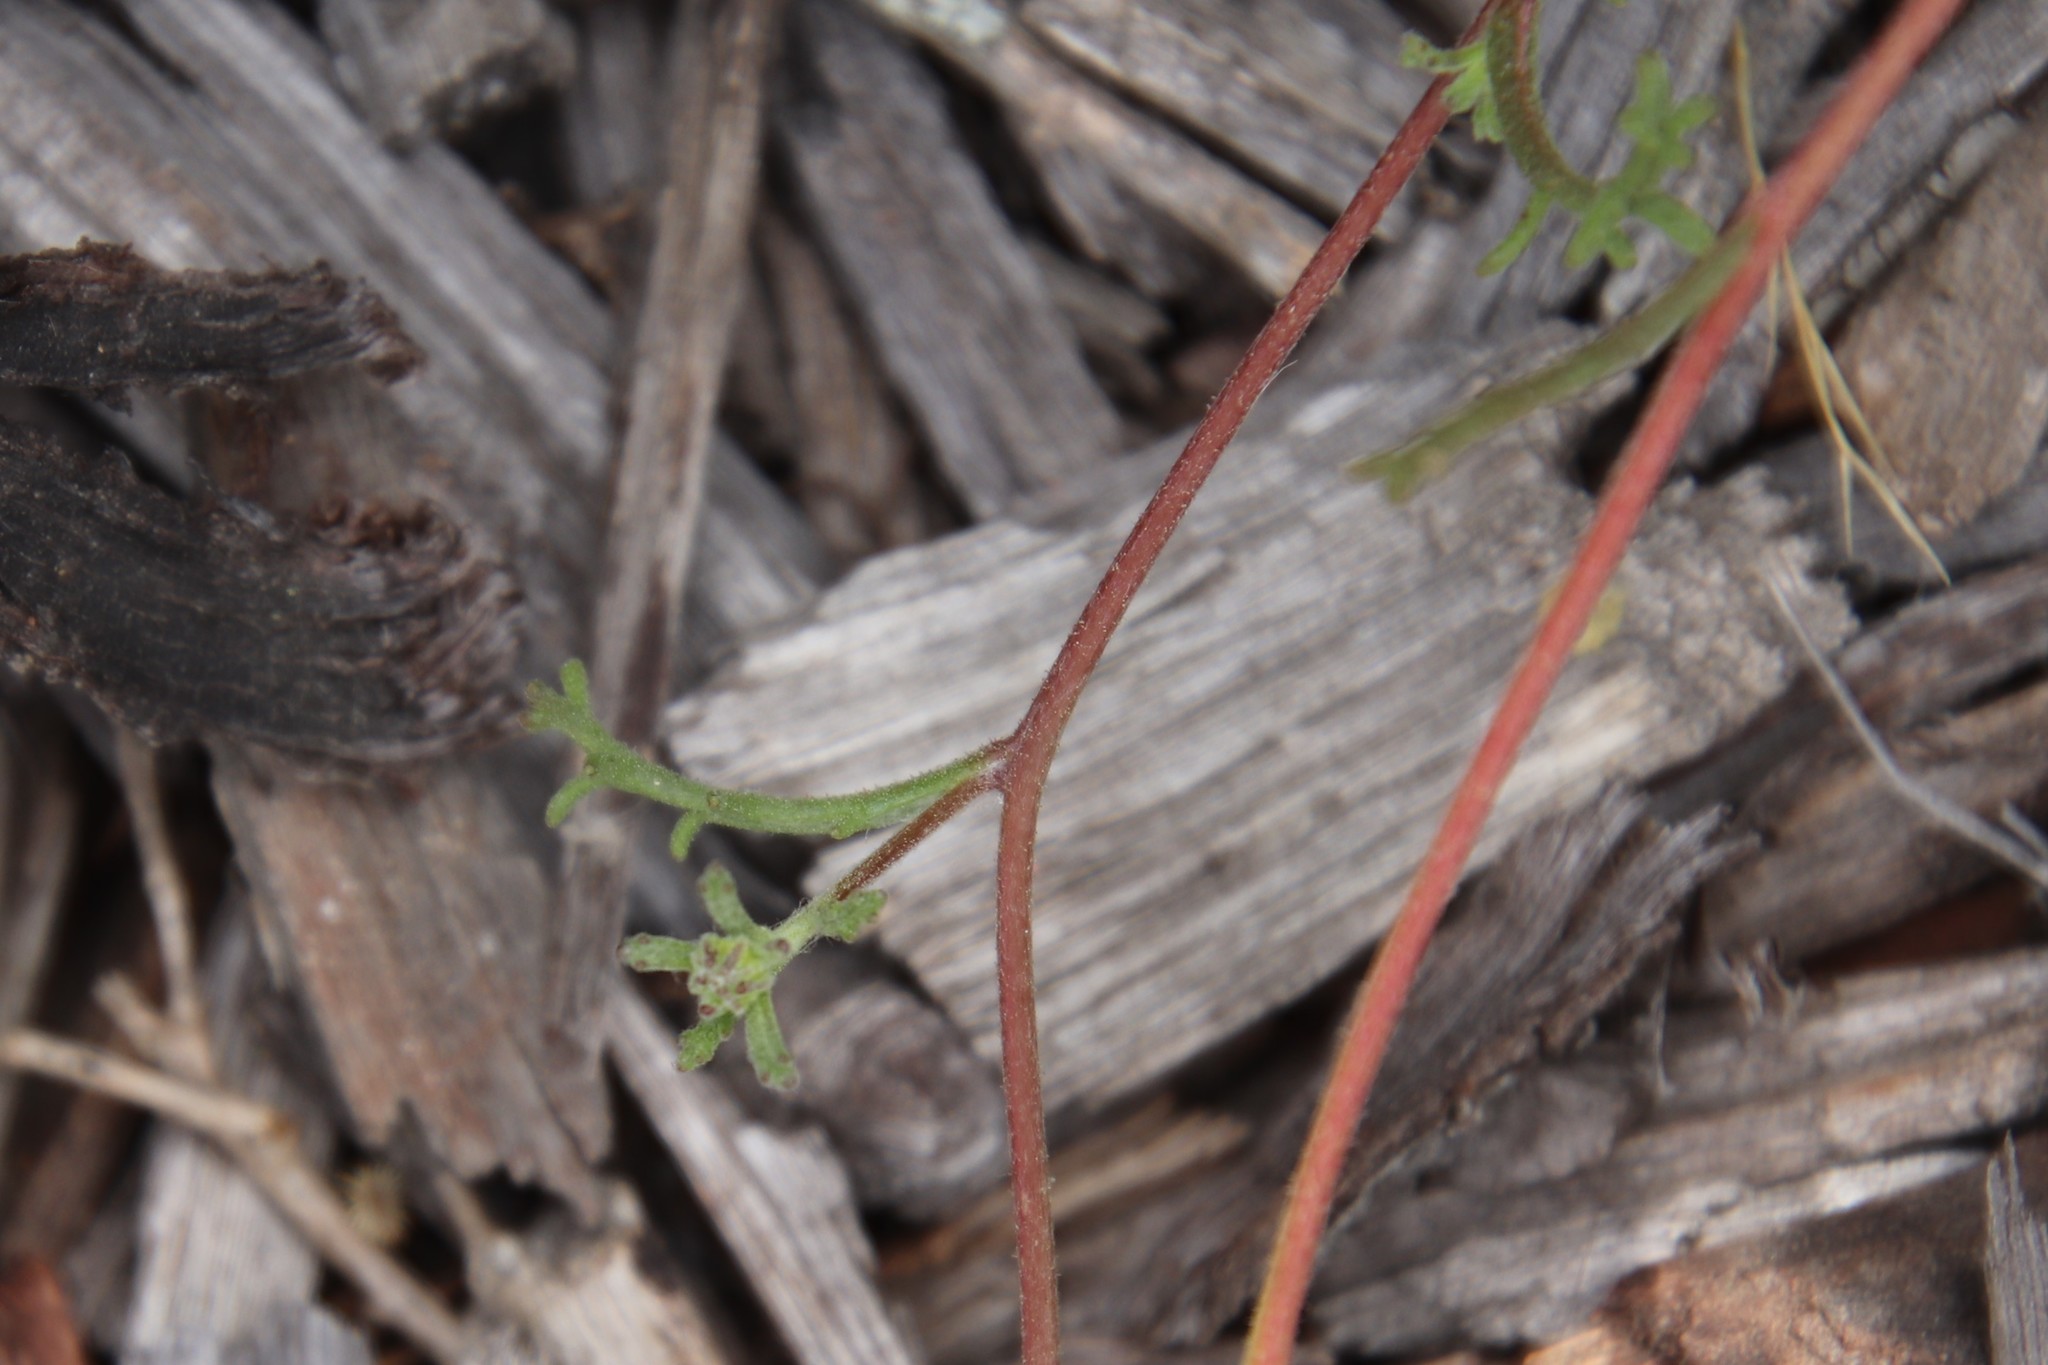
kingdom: Plantae
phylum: Tracheophyta
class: Magnoliopsida
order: Asterales
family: Asteraceae
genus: Chaenactis
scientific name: Chaenactis glabriuscula
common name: Yellow pincushion
